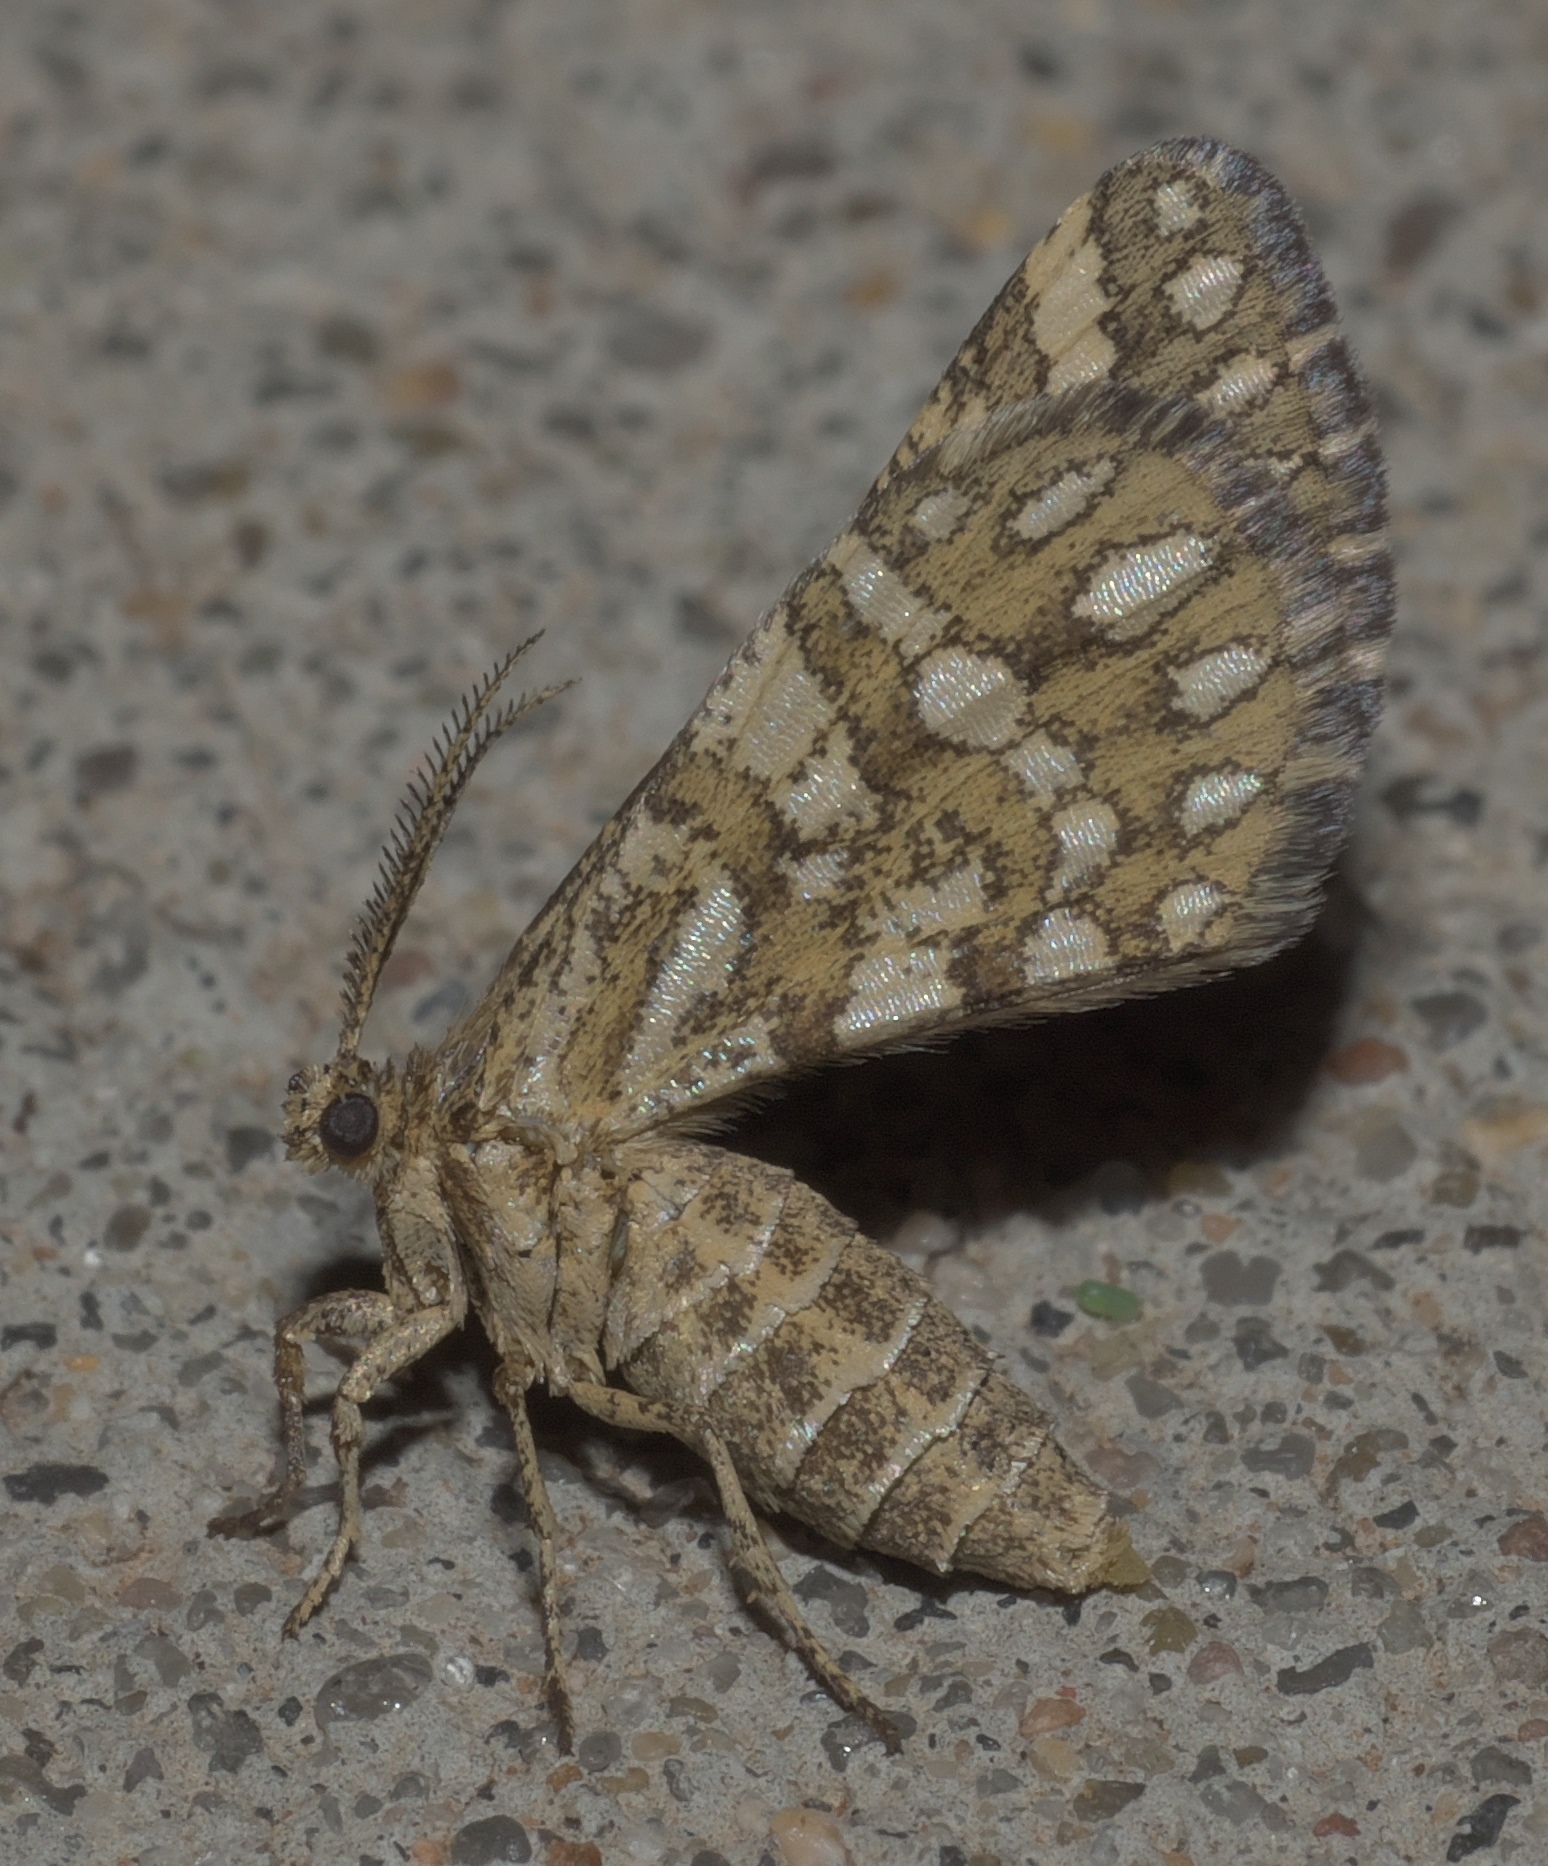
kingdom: Animalia
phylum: Arthropoda
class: Insecta
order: Lepidoptera
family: Geometridae
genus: Narraga
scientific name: Narraga fimetaria
